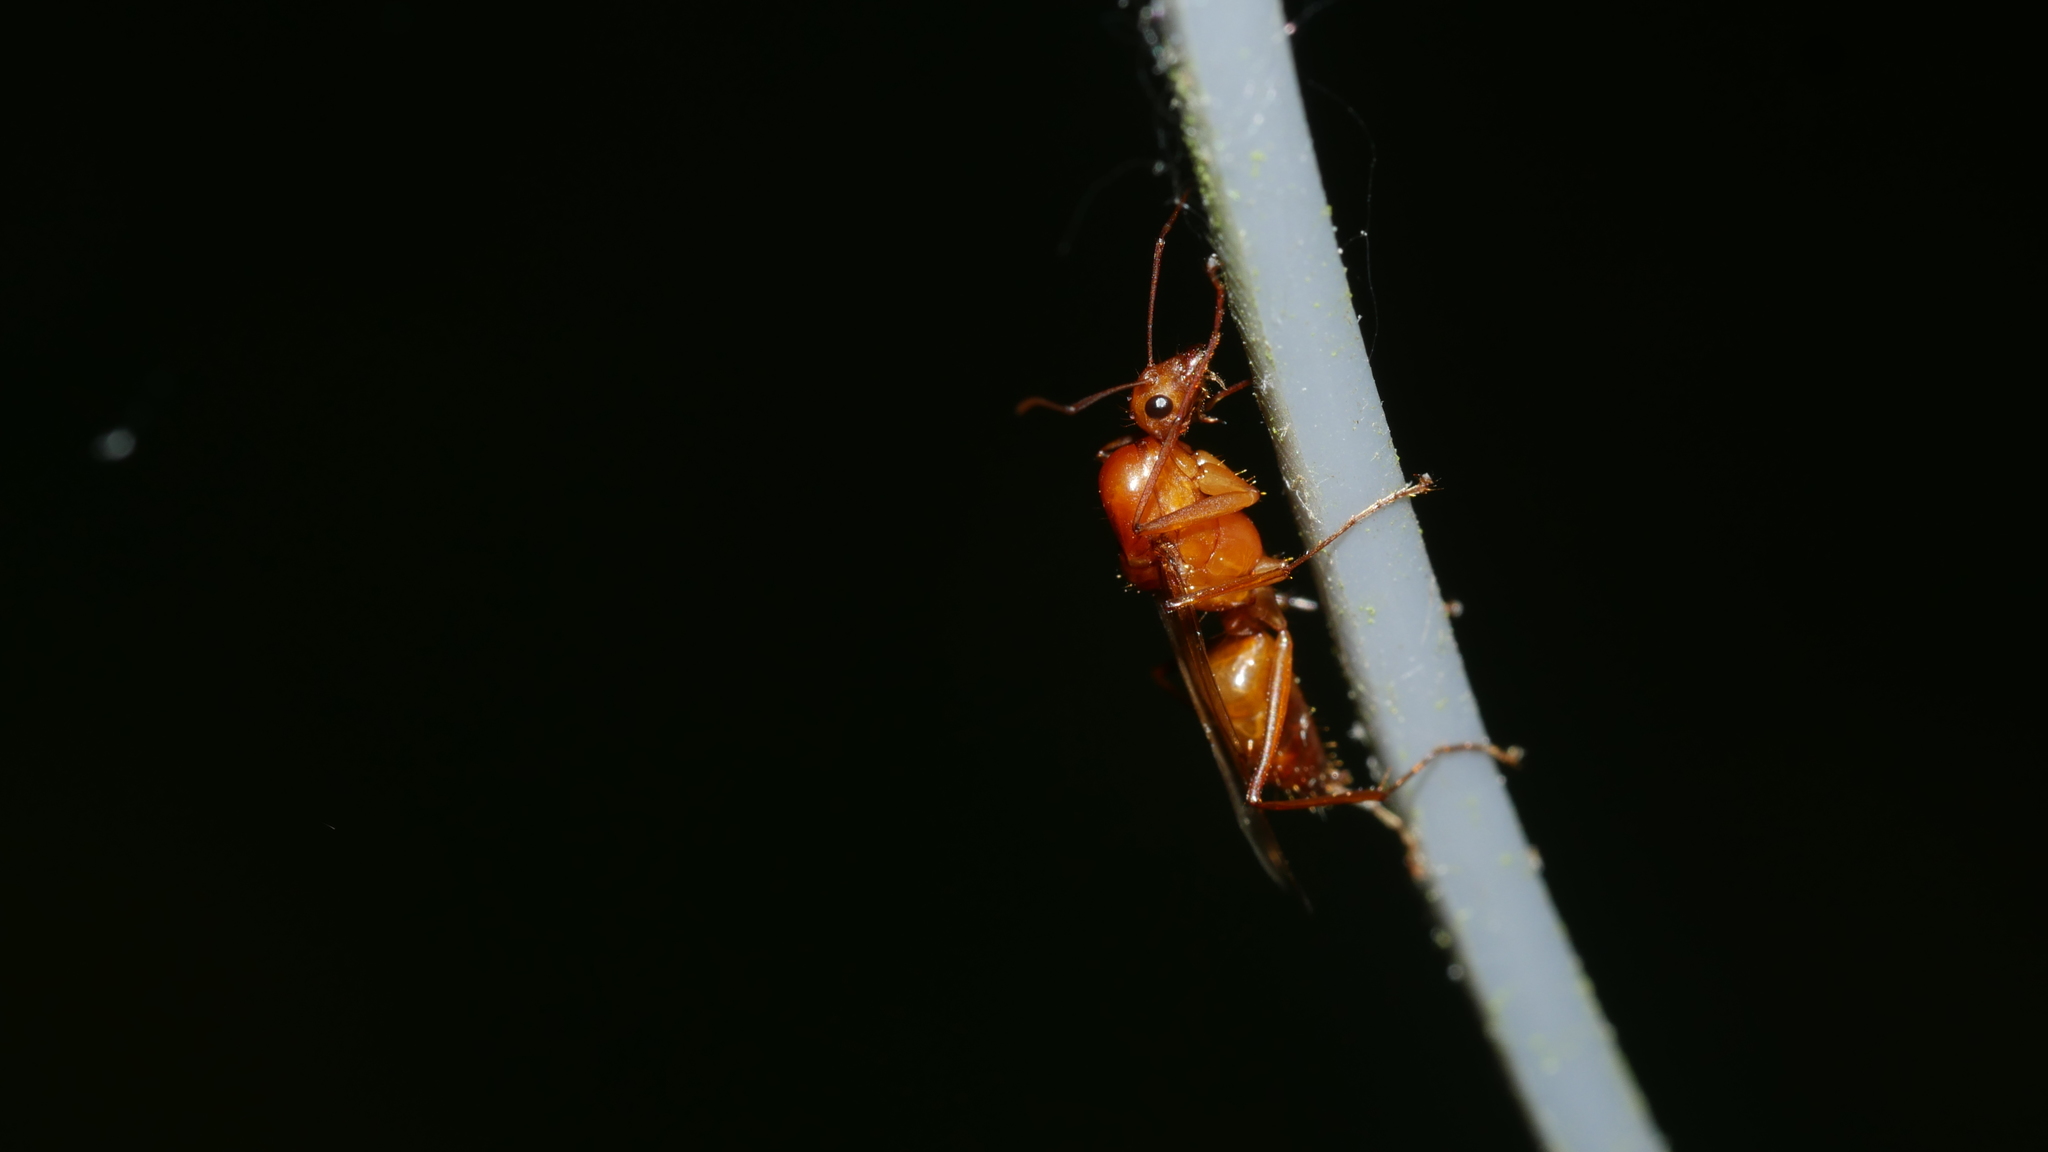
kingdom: Animalia
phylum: Arthropoda
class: Insecta
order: Hymenoptera
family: Formicidae
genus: Camponotus
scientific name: Camponotus castaneus
